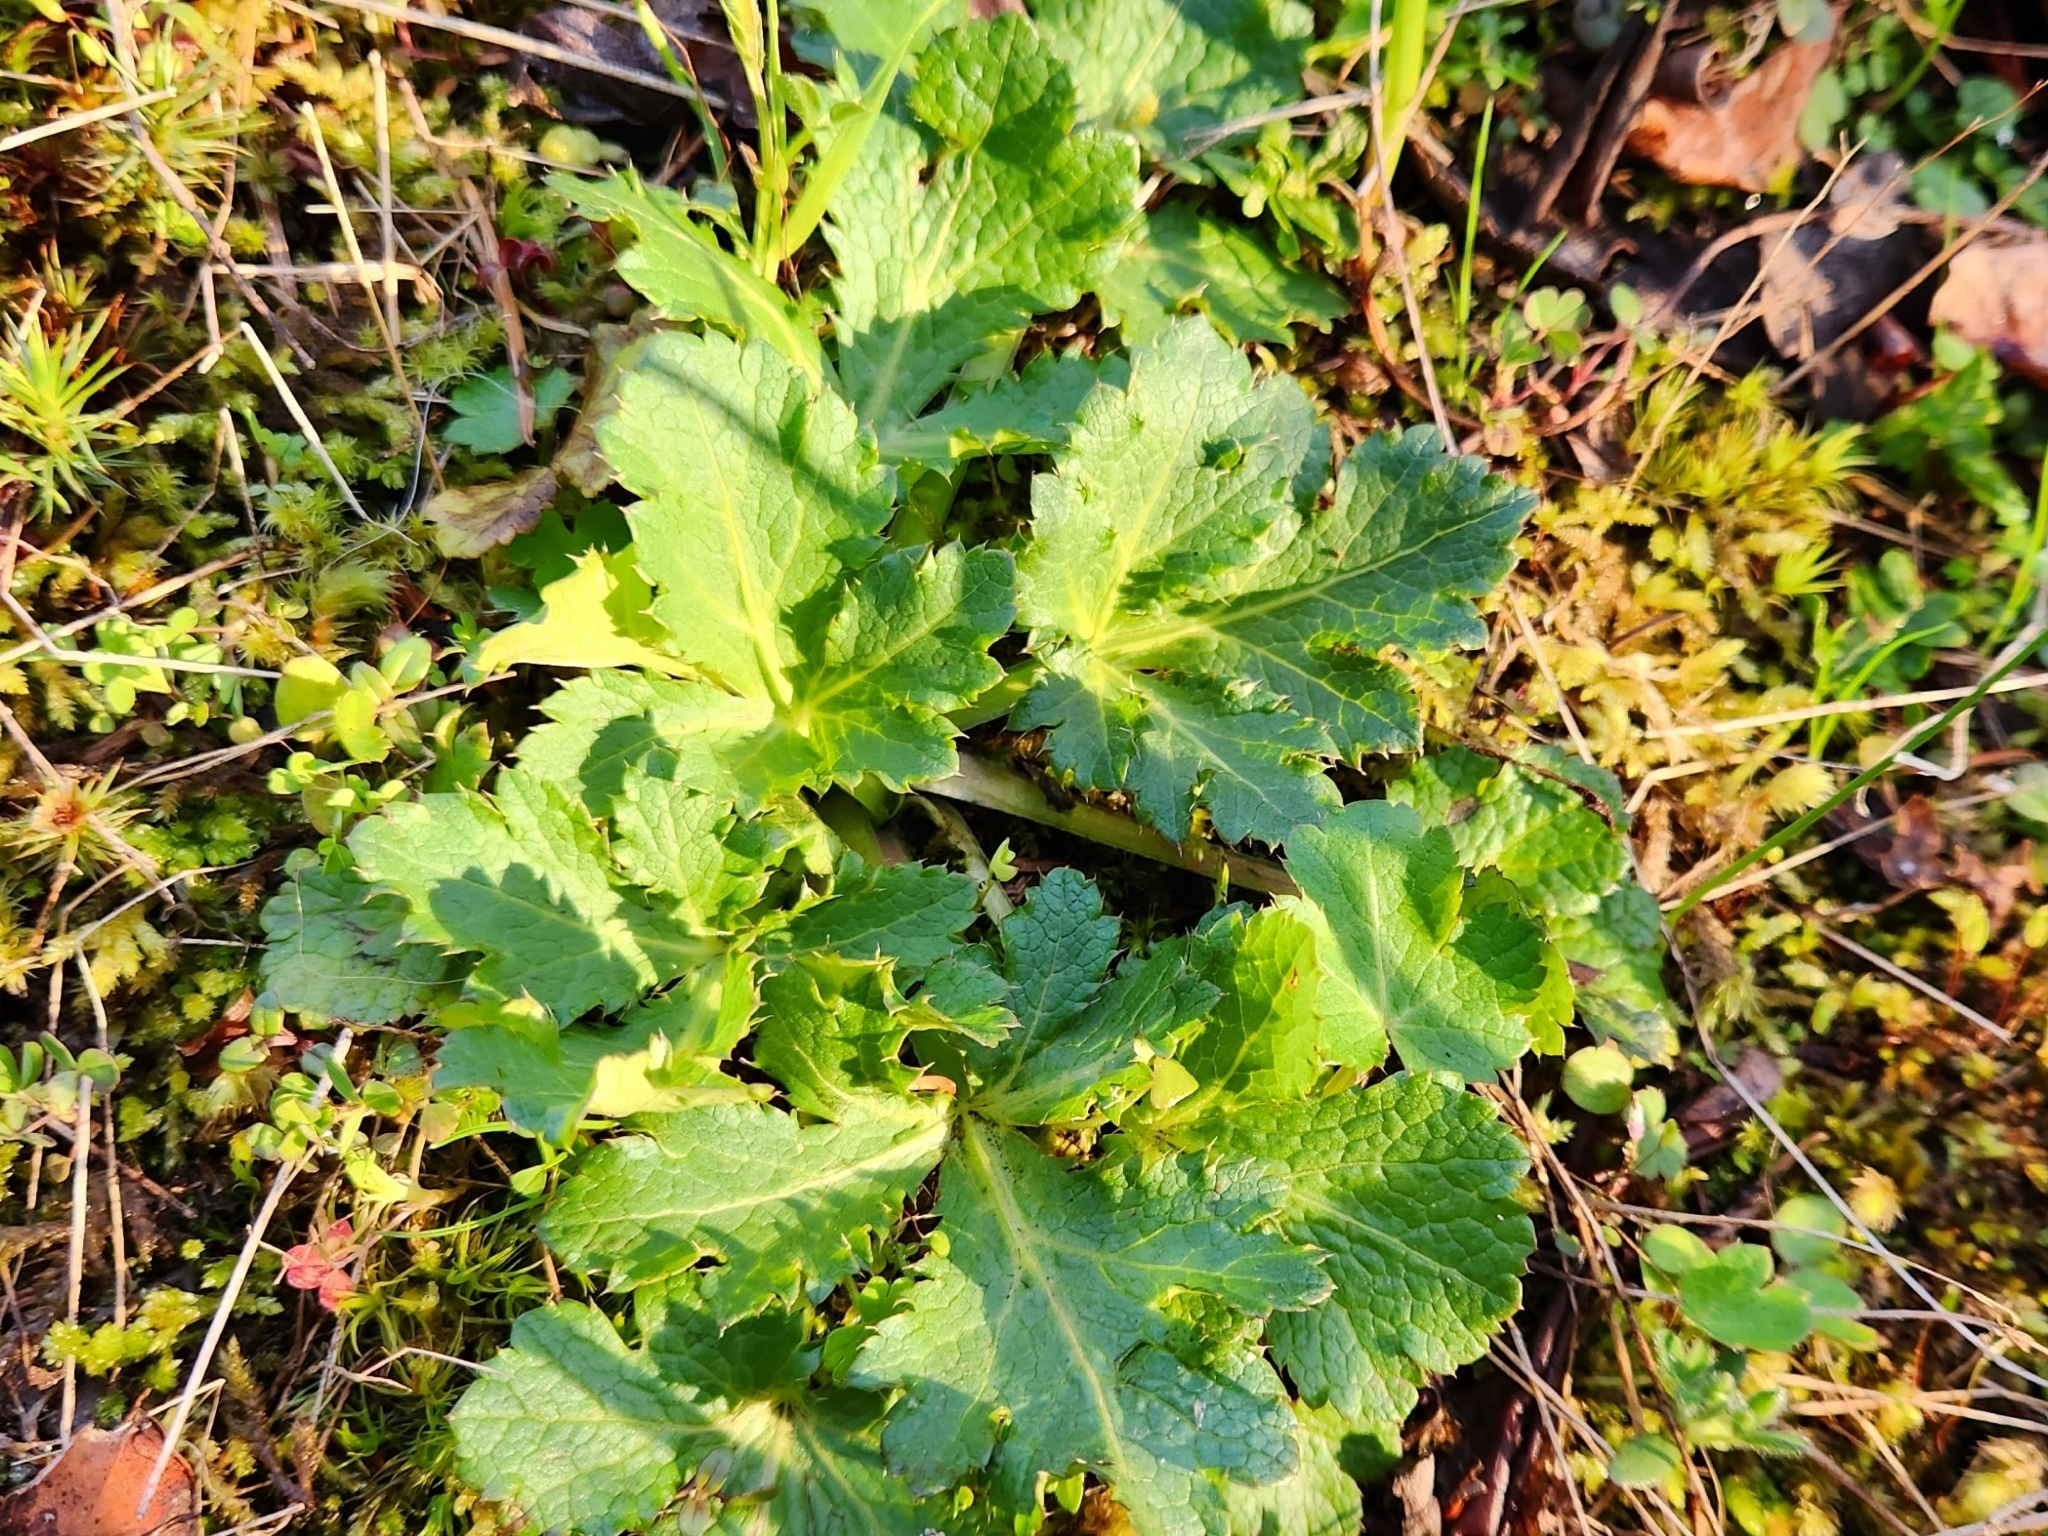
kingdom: Plantae
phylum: Tracheophyta
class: Magnoliopsida
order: Apiales
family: Apiaceae
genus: Sanicula
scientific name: Sanicula crassicaulis
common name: Western snakeroot
